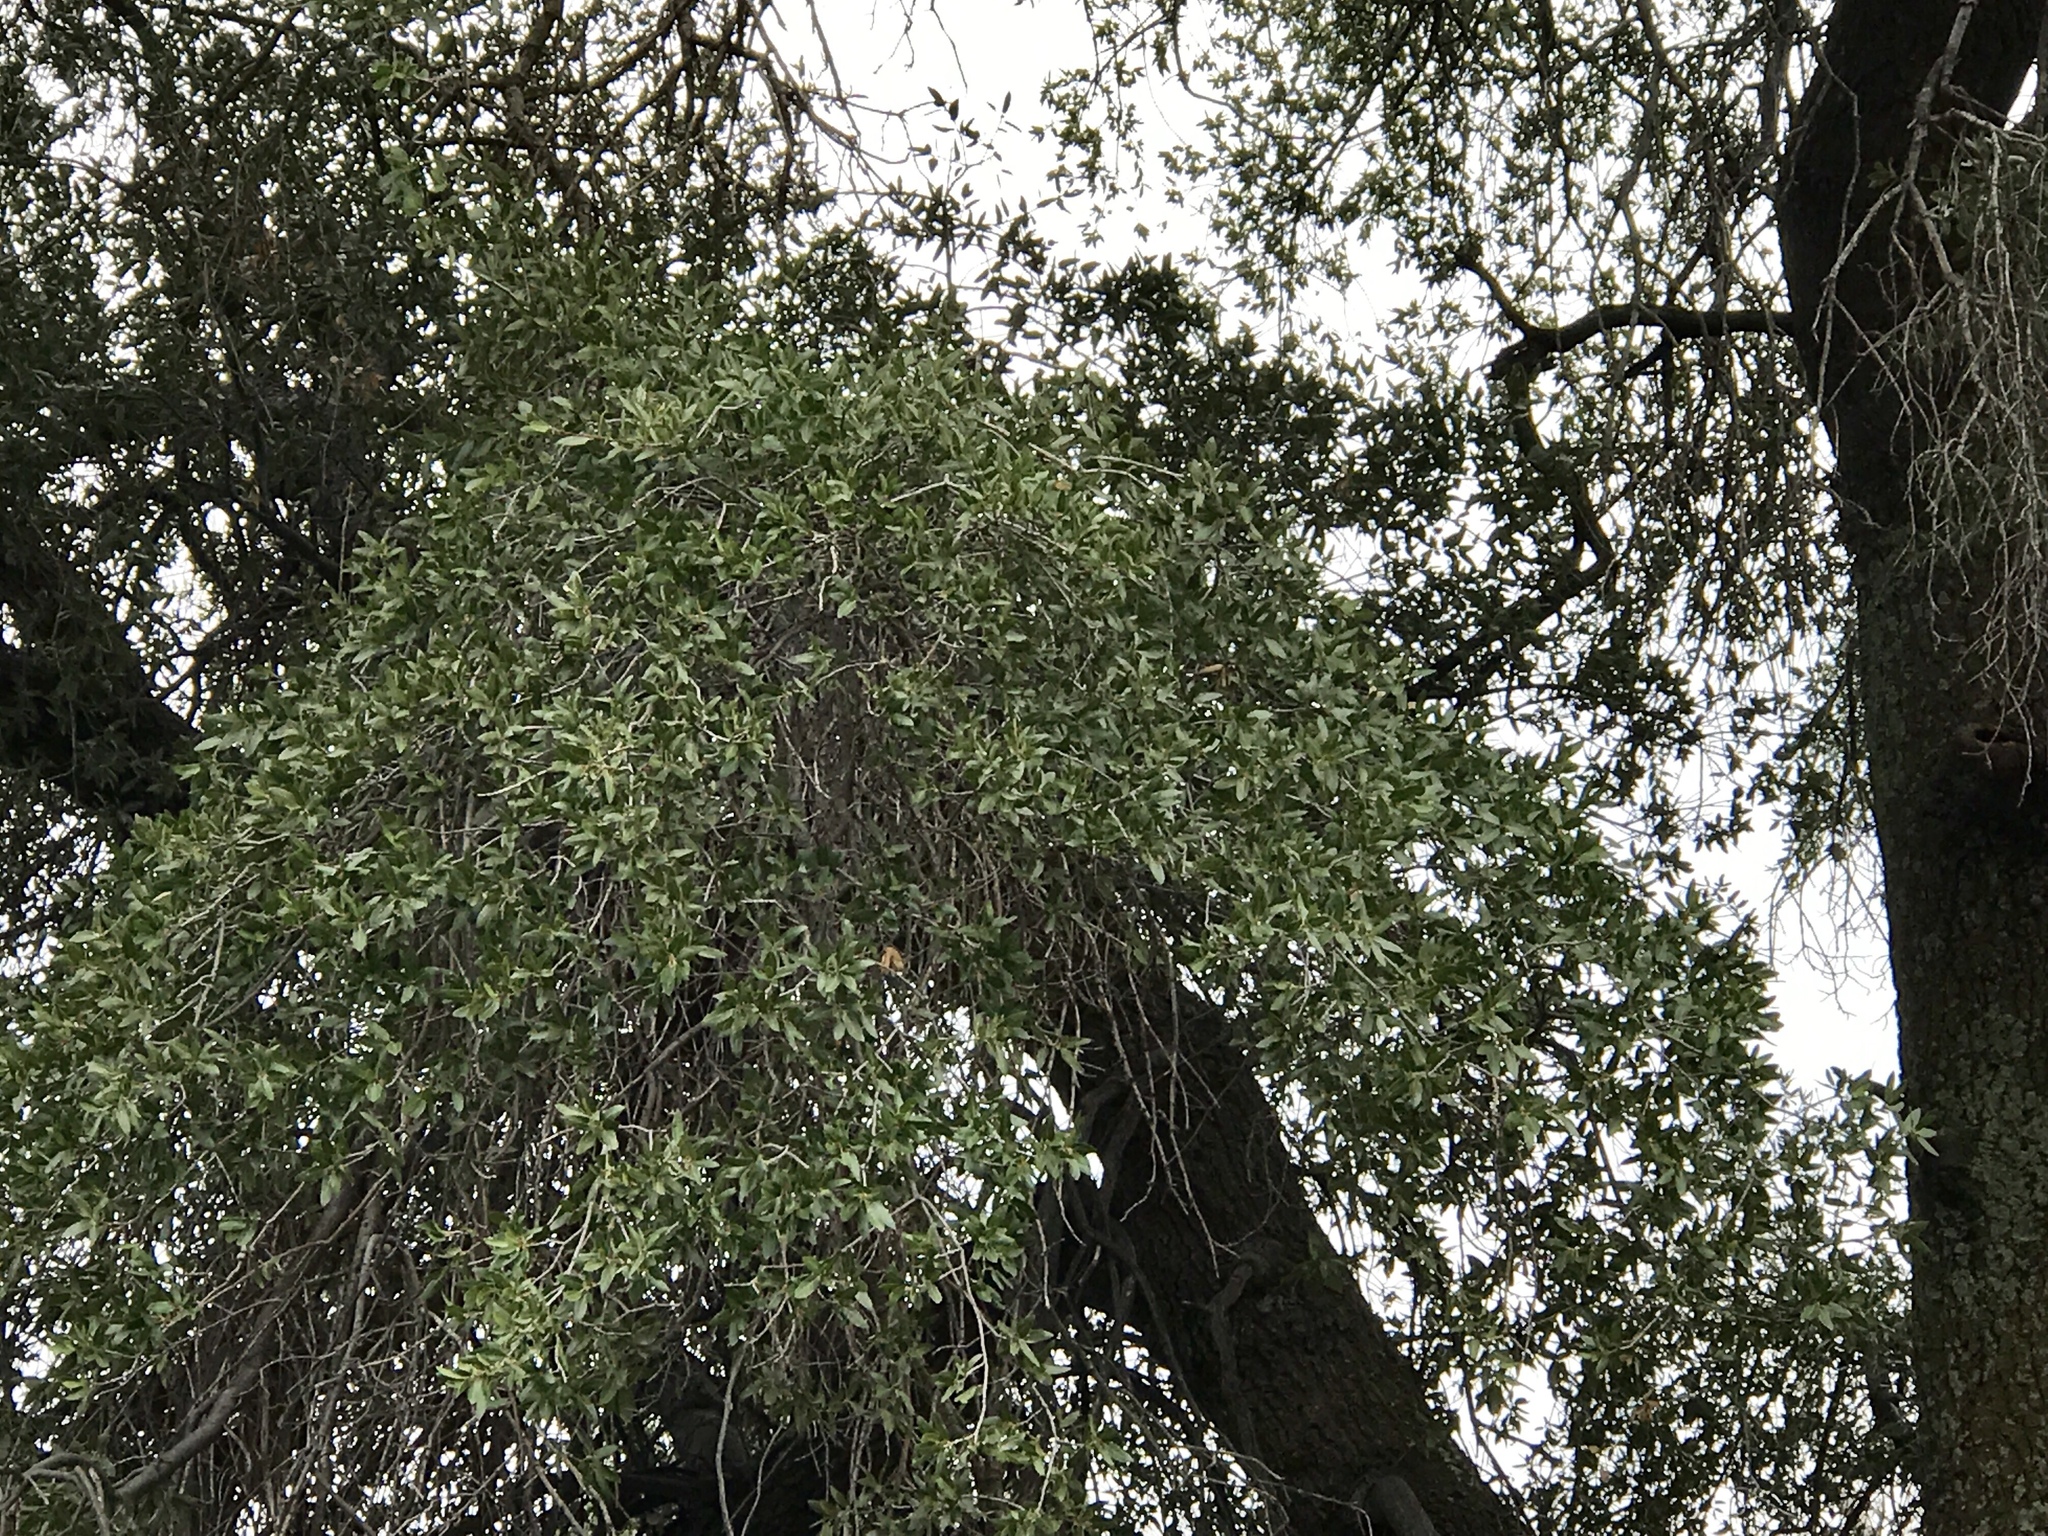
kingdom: Plantae
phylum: Tracheophyta
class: Magnoliopsida
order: Fagales
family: Fagaceae
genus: Quercus
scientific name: Quercus arizonica
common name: Arizona white oak
